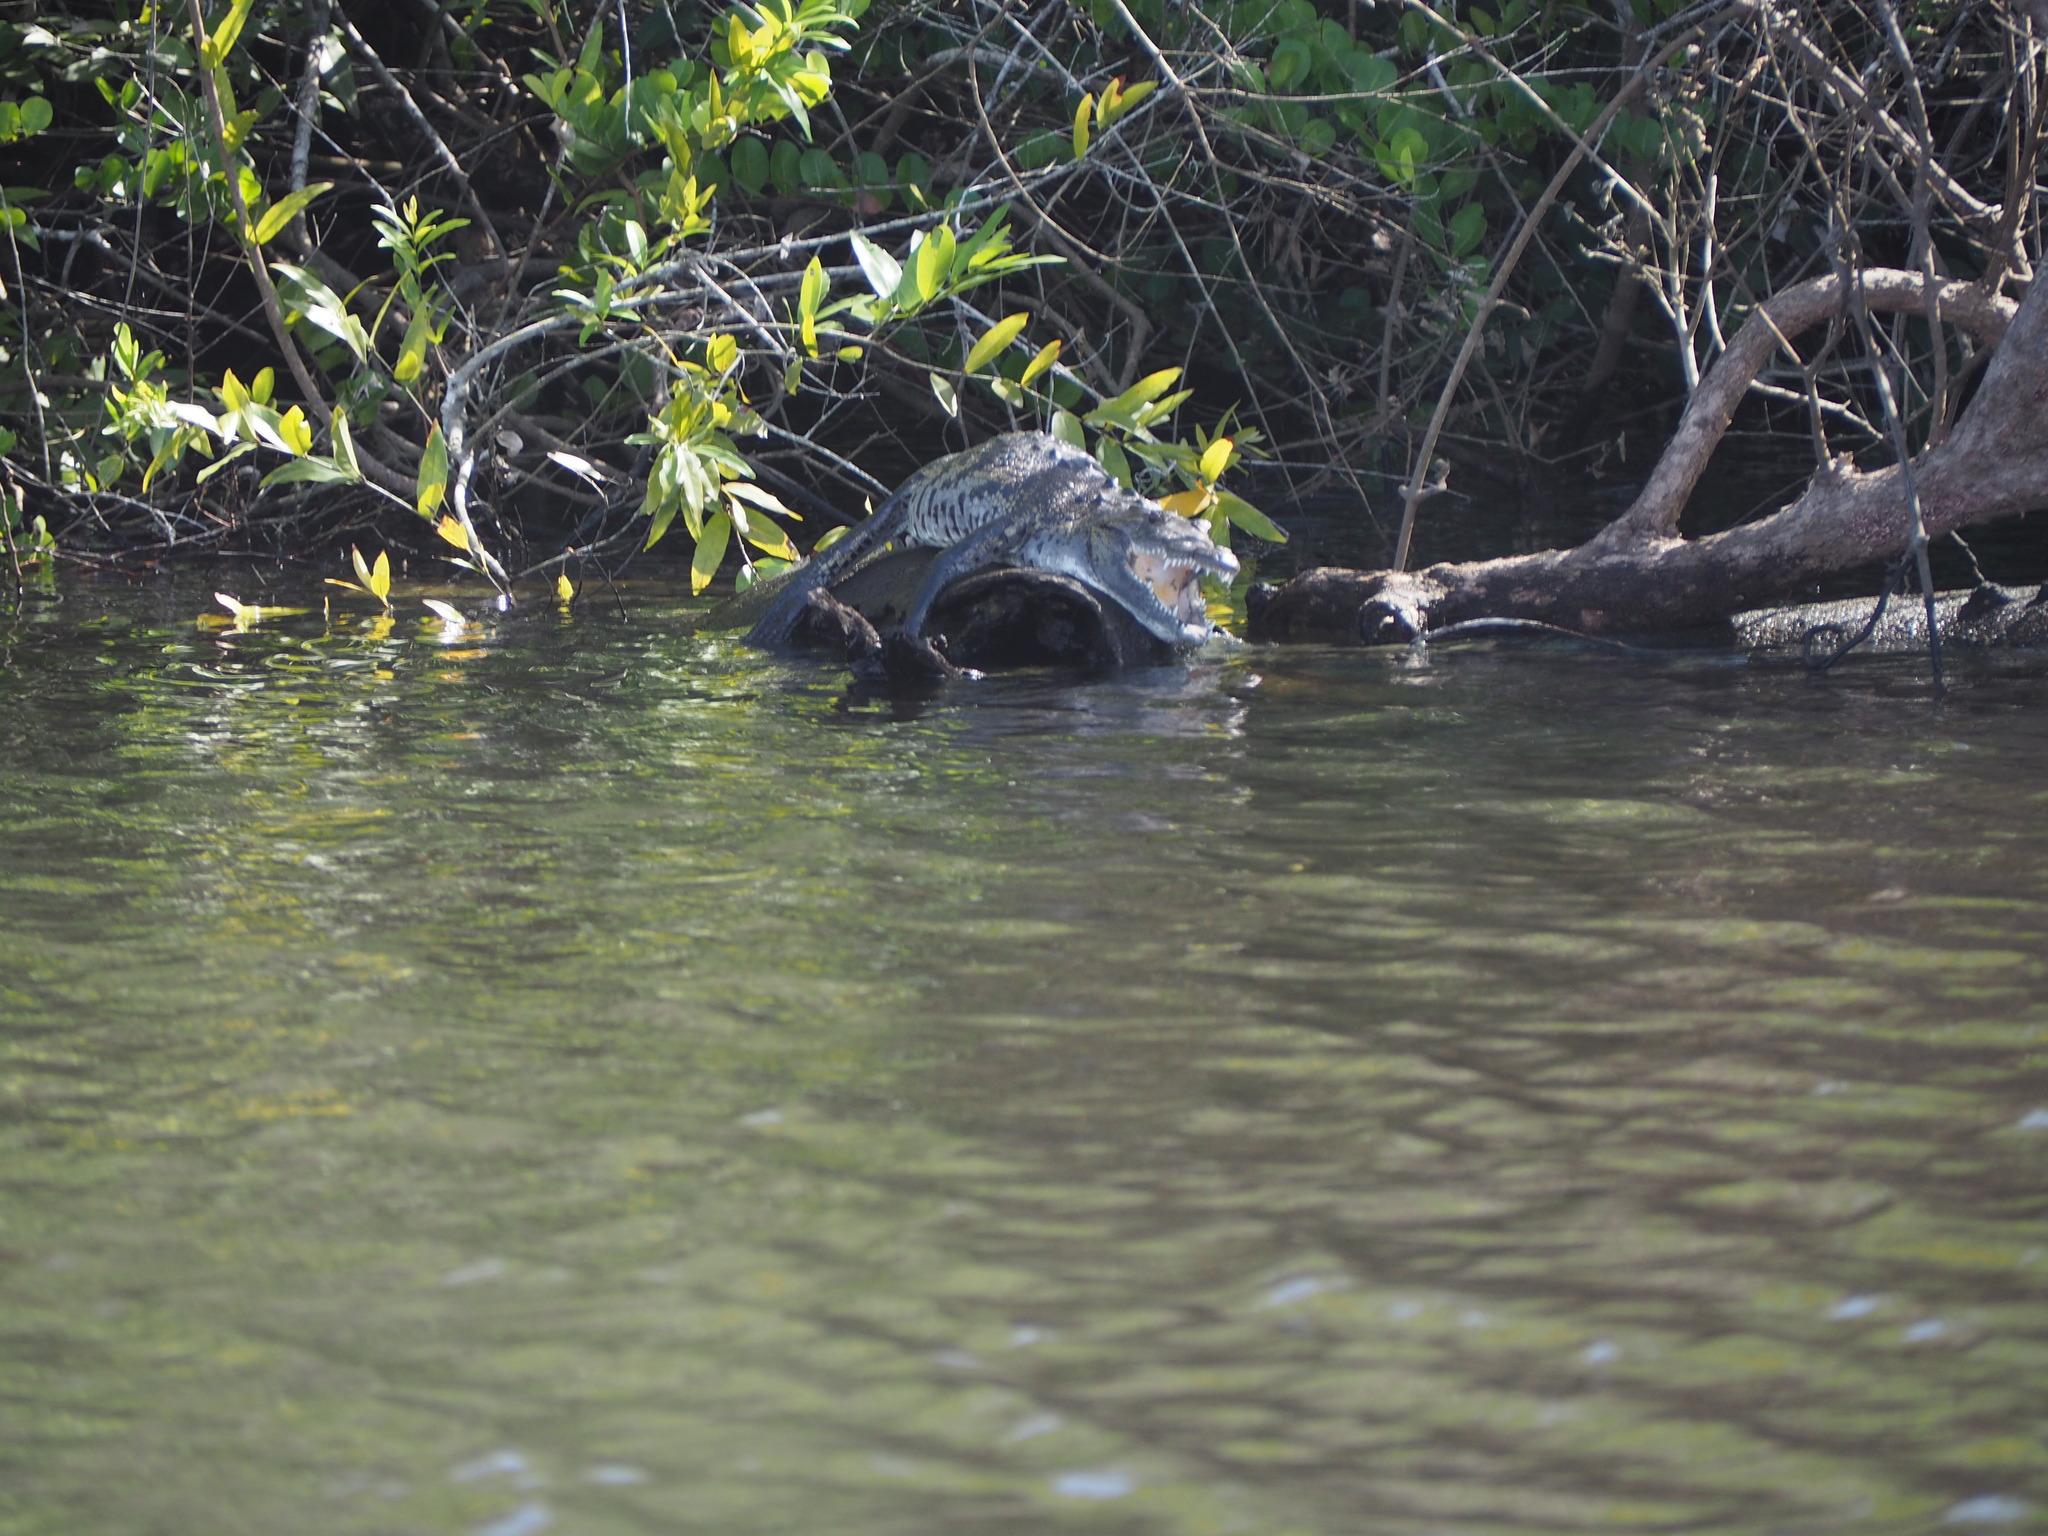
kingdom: Animalia
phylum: Chordata
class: Crocodylia
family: Crocodylidae
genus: Crocodylus
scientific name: Crocodylus moreletii
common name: Morelet's crocodile
